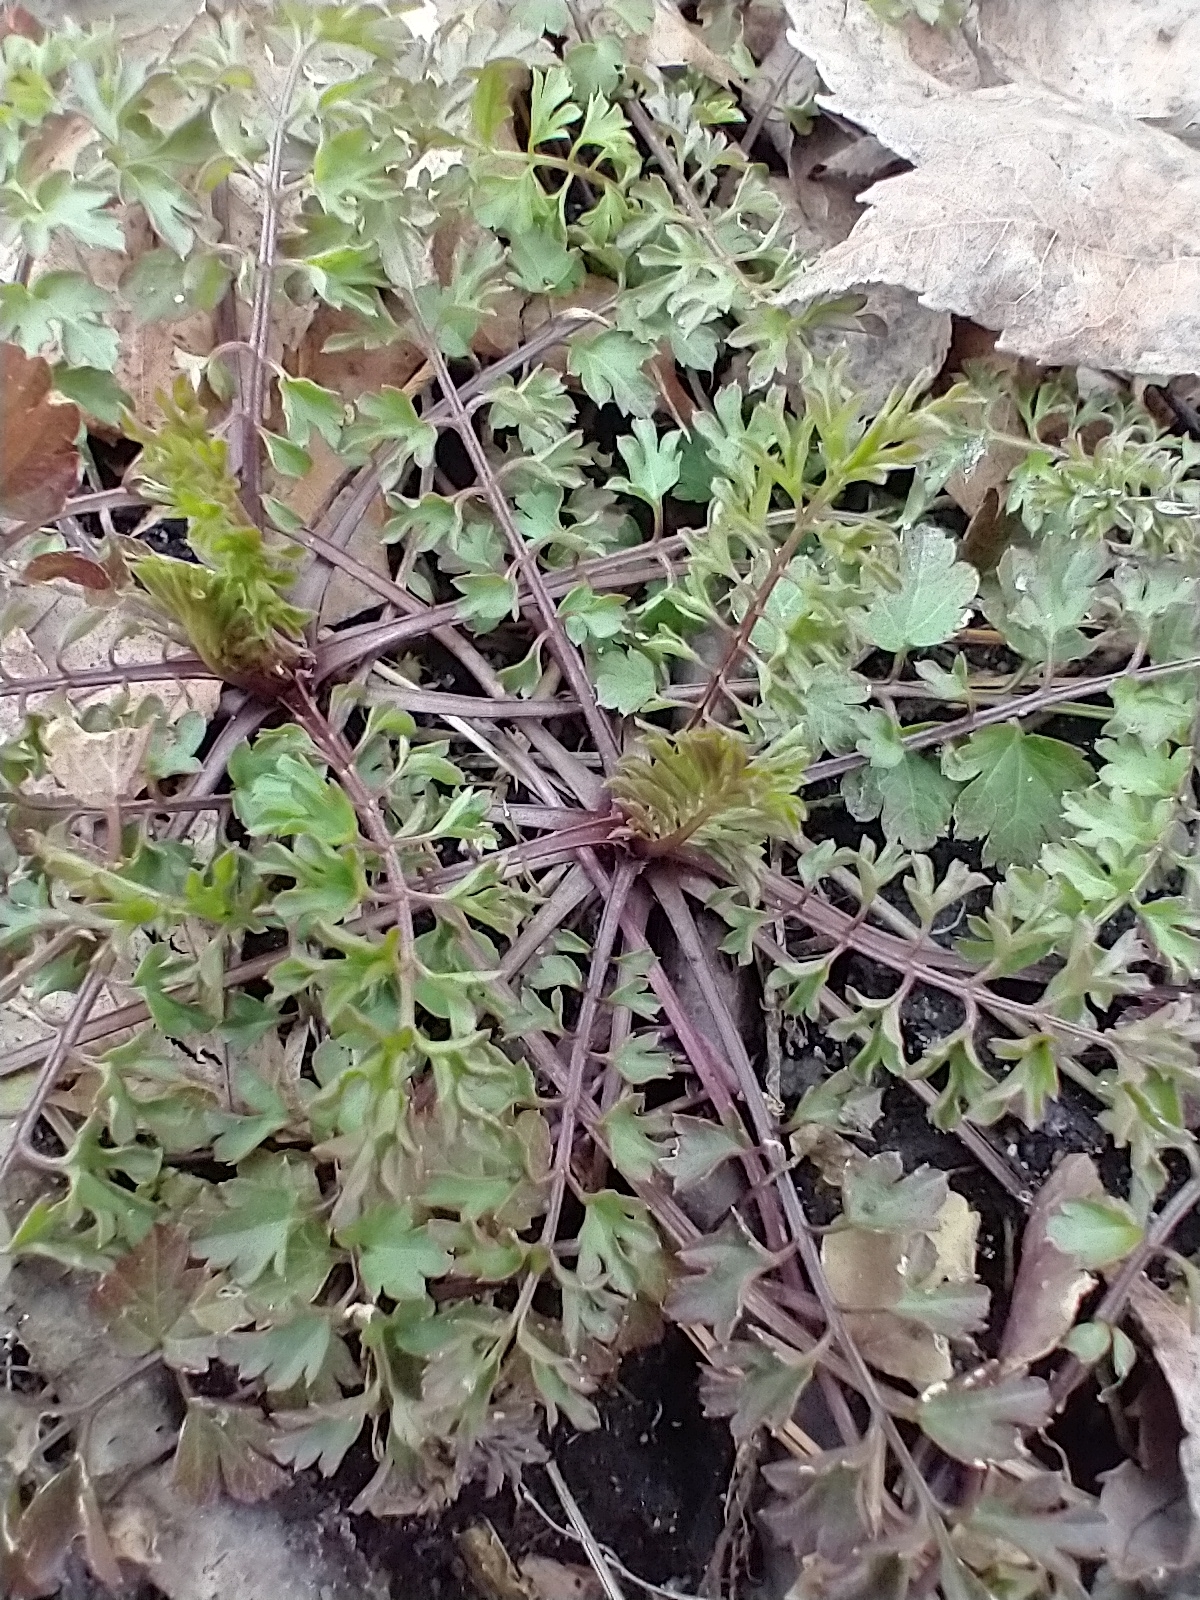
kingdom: Plantae
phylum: Tracheophyta
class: Magnoliopsida
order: Brassicales
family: Brassicaceae
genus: Cardamine
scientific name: Cardamine impatiens
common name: Narrow-leaved bitter-cress
